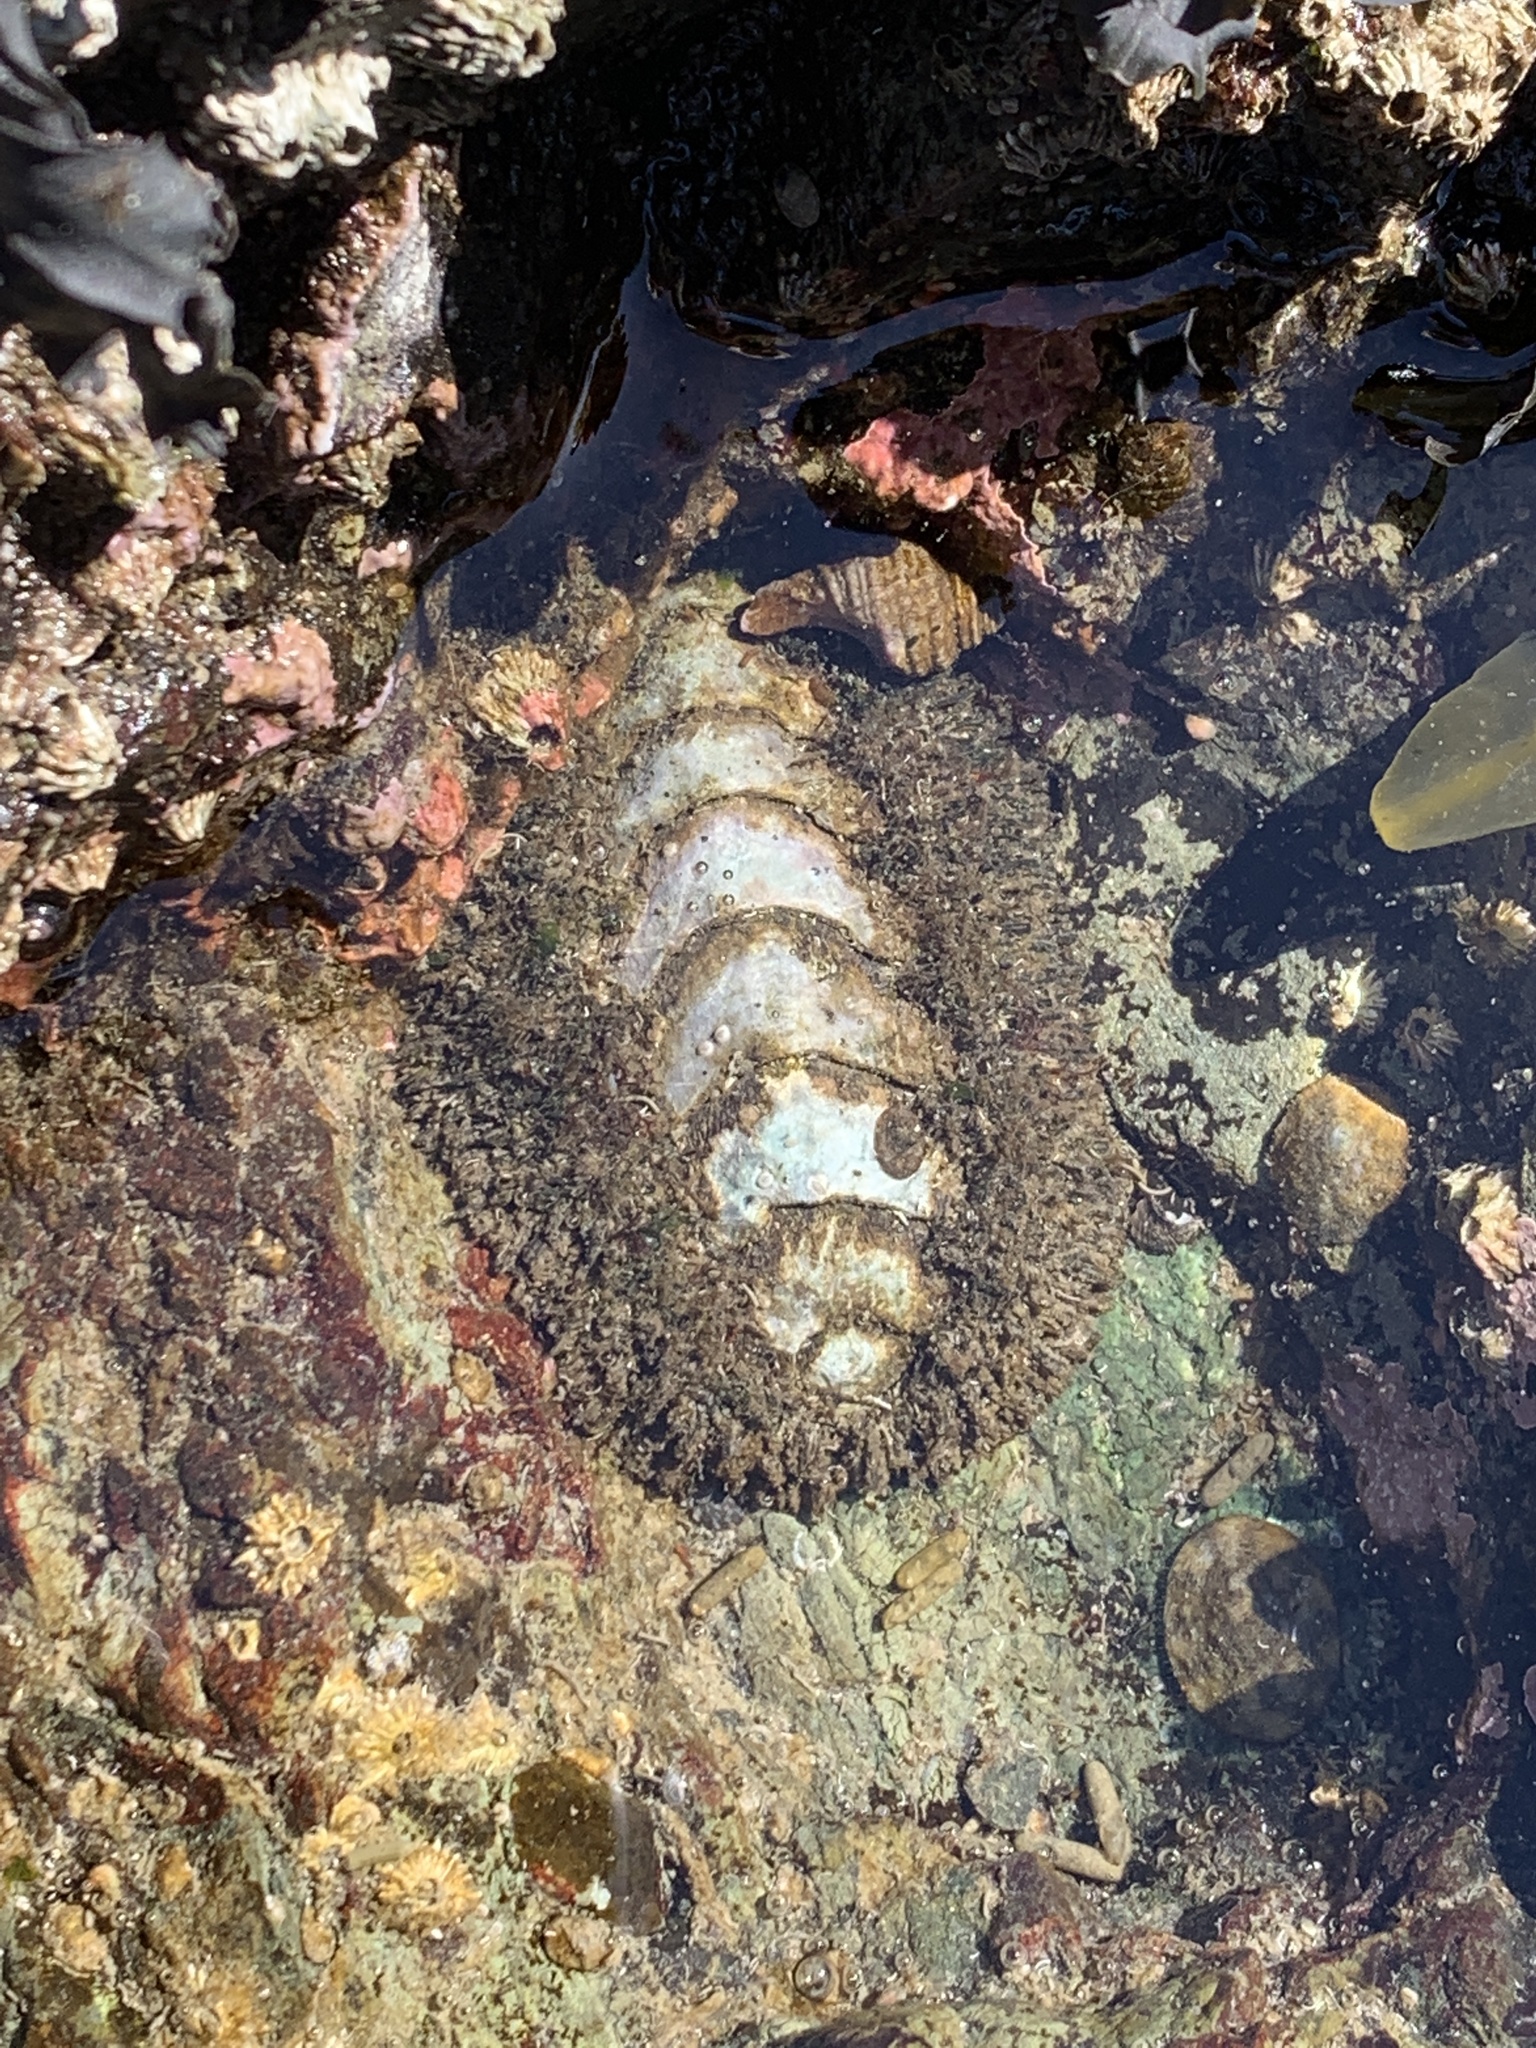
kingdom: Animalia
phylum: Mollusca
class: Polyplacophora
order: Chitonida
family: Mopaliidae
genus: Mopalia
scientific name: Mopalia muscosa
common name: Mossy chiton
